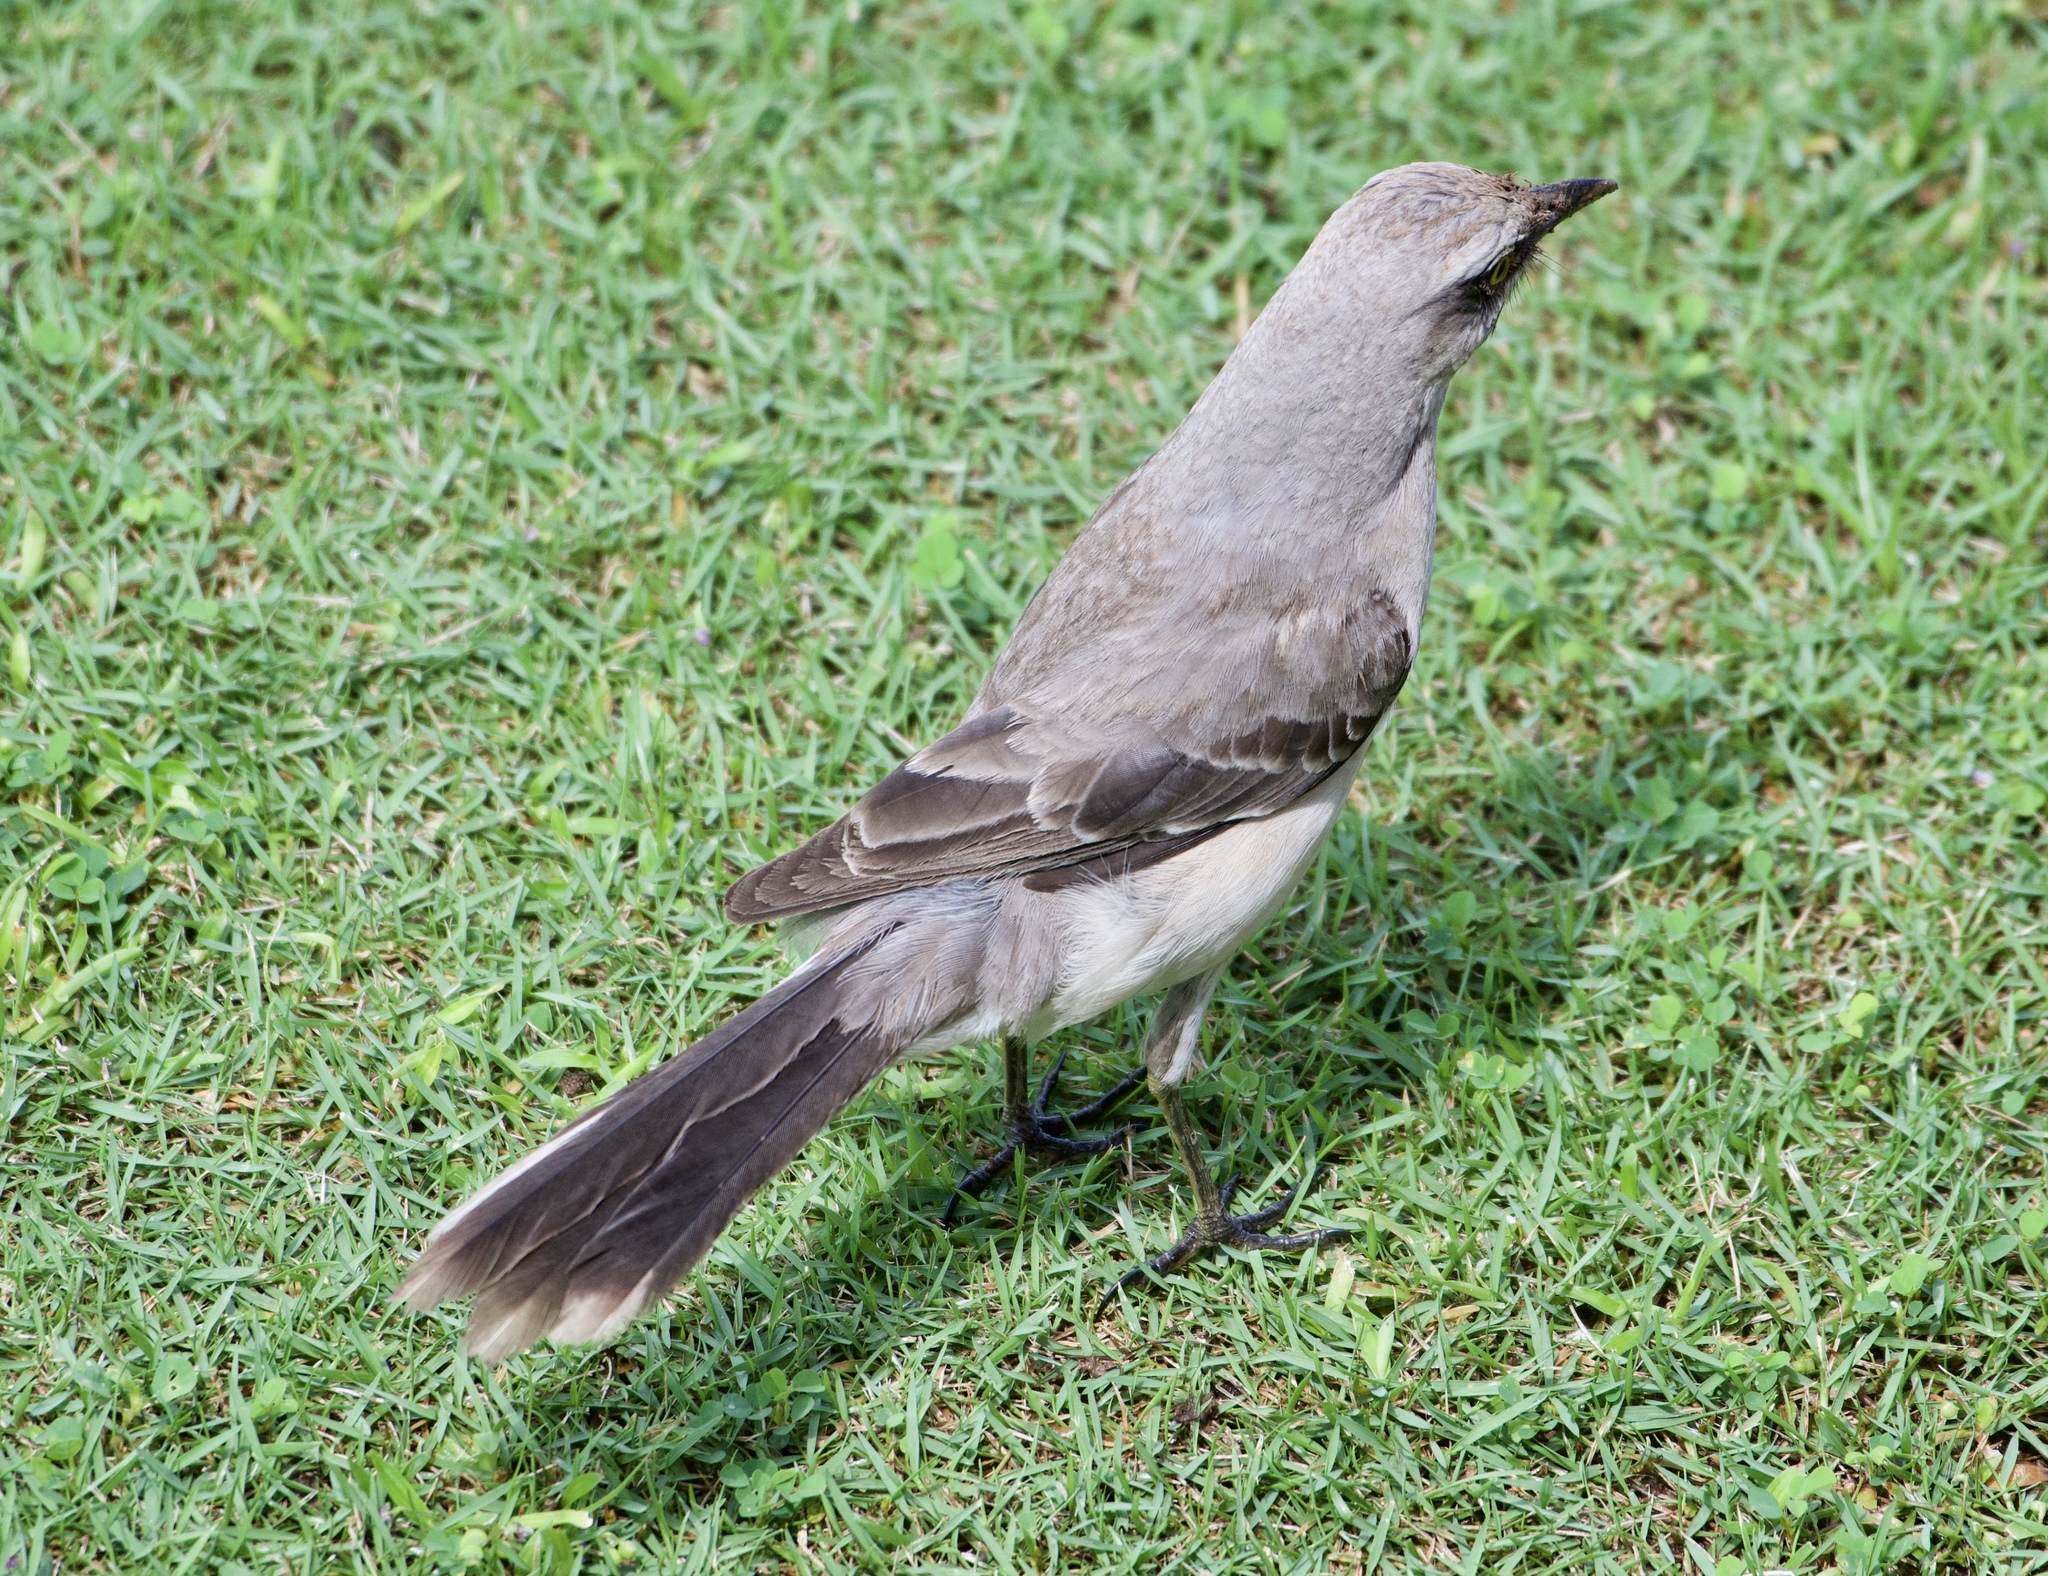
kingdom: Animalia
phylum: Chordata
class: Aves
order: Passeriformes
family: Mimidae
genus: Mimus
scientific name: Mimus gilvus
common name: Tropical mockingbird
